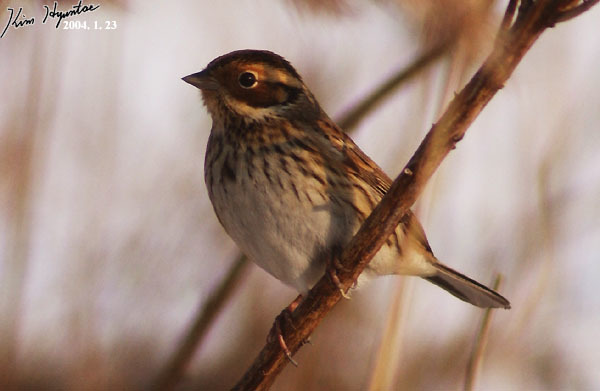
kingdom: Animalia
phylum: Chordata
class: Aves
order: Passeriformes
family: Emberizidae
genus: Emberiza
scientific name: Emberiza pusilla
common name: Little bunting
